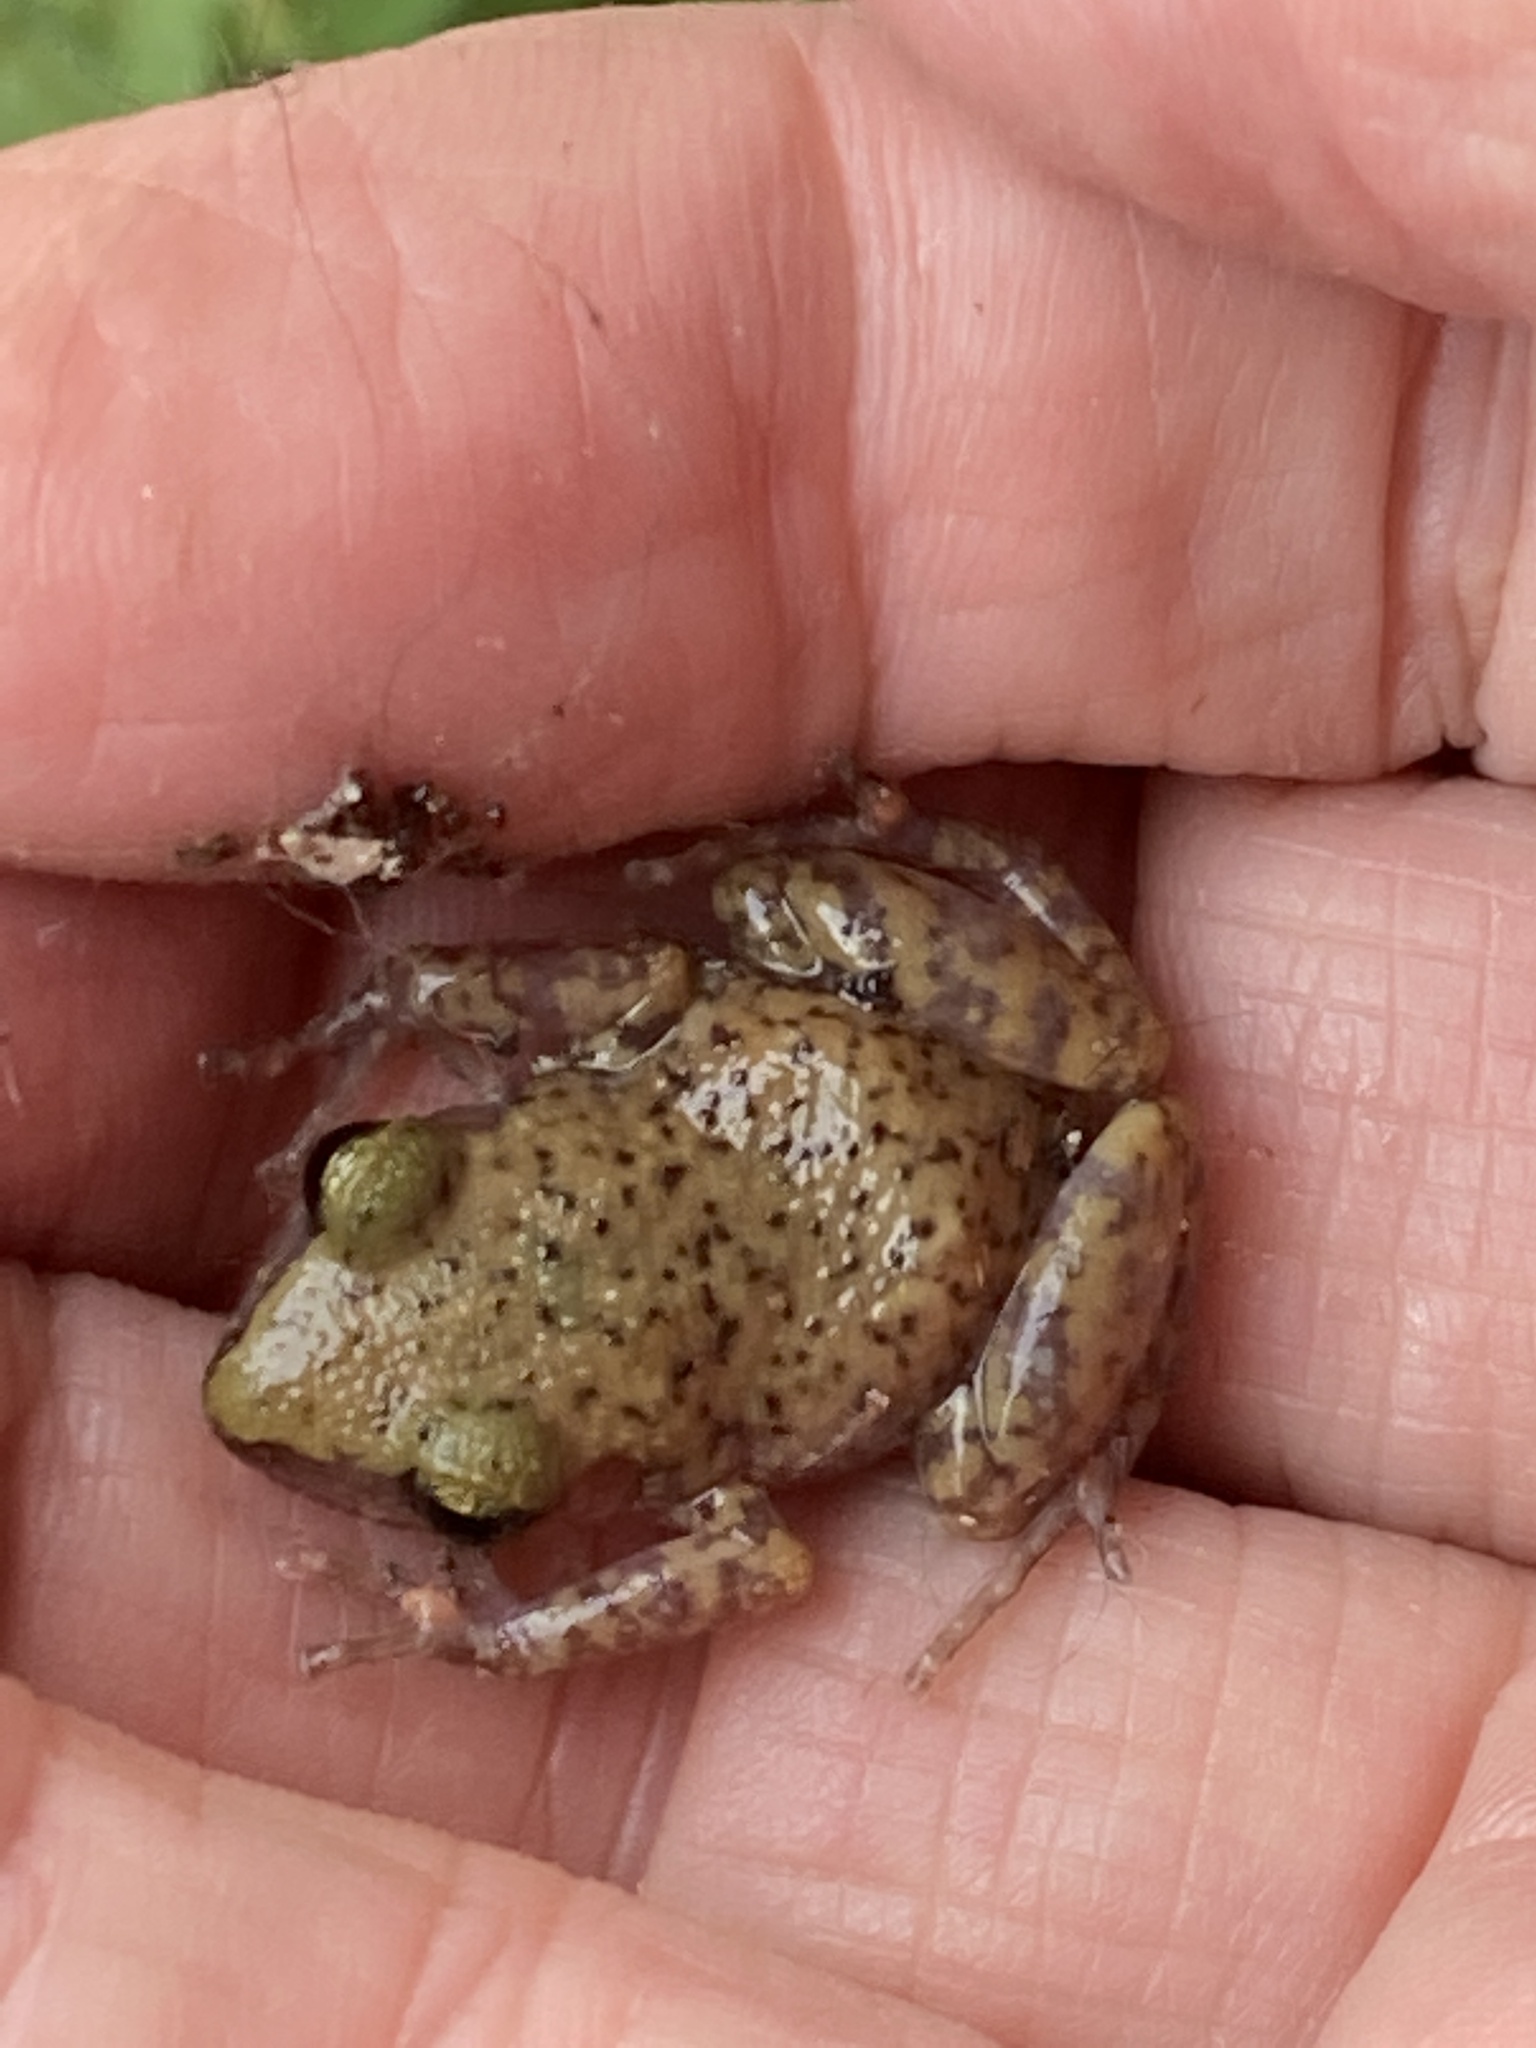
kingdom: Animalia
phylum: Chordata
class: Amphibia
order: Anura
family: Eleutherodactylidae
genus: Eleutherodactylus
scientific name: Eleutherodactylus marnockii
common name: Cliff chirping frog
